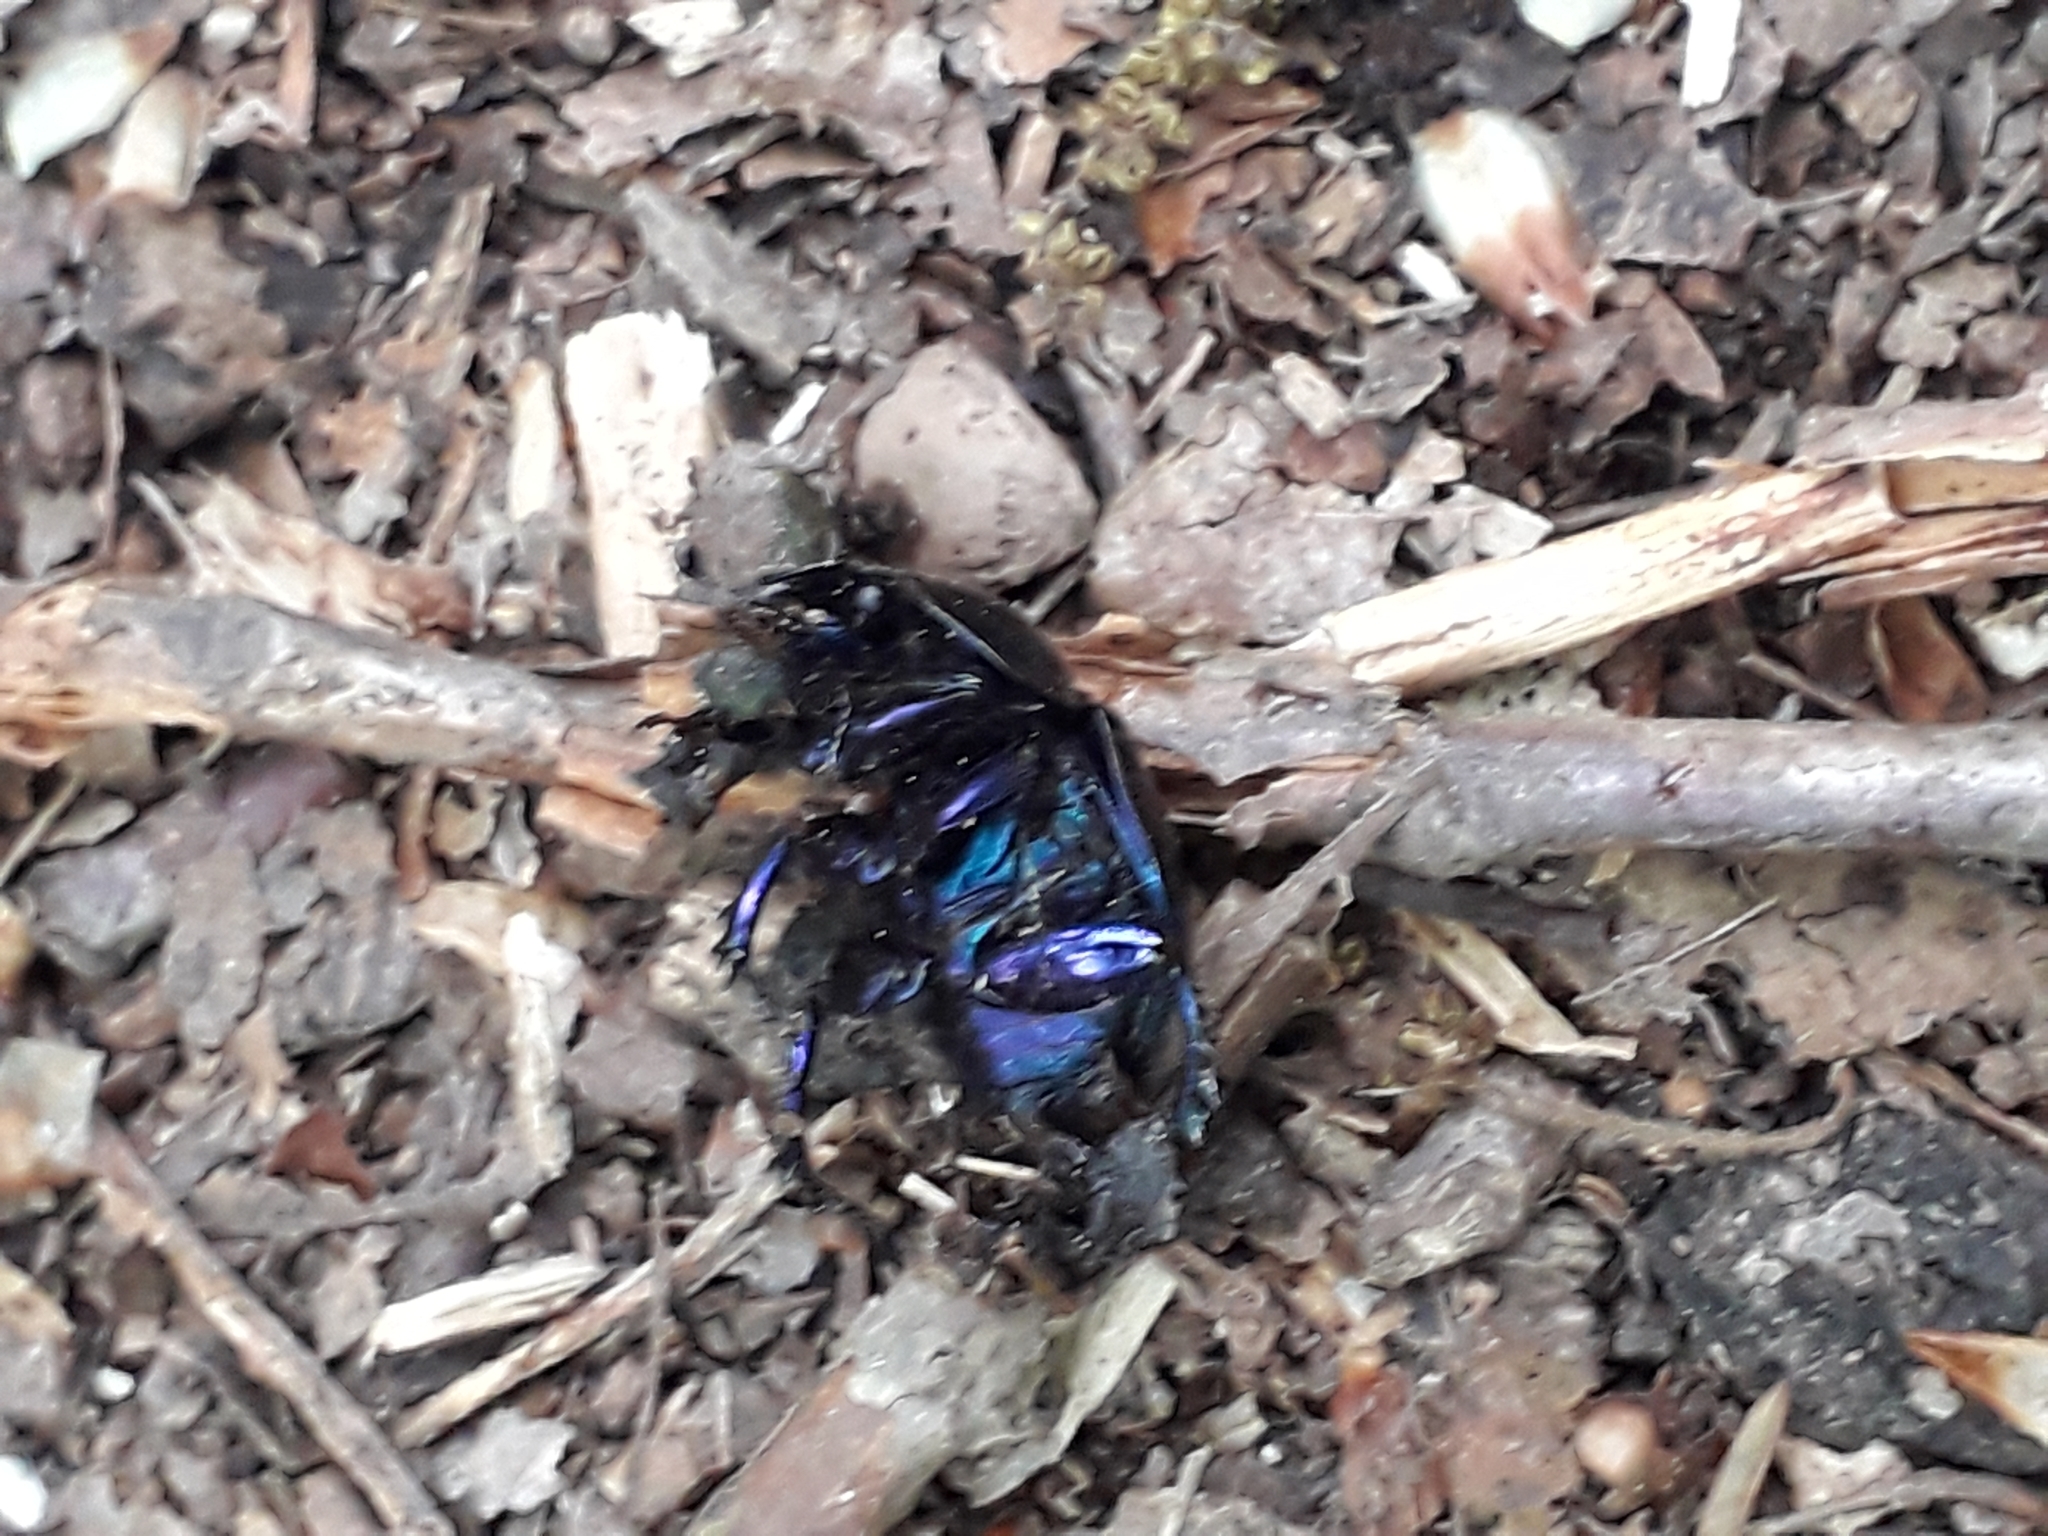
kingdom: Animalia
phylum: Arthropoda
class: Insecta
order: Coleoptera
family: Geotrupidae
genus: Anoplotrupes
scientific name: Anoplotrupes stercorosus
